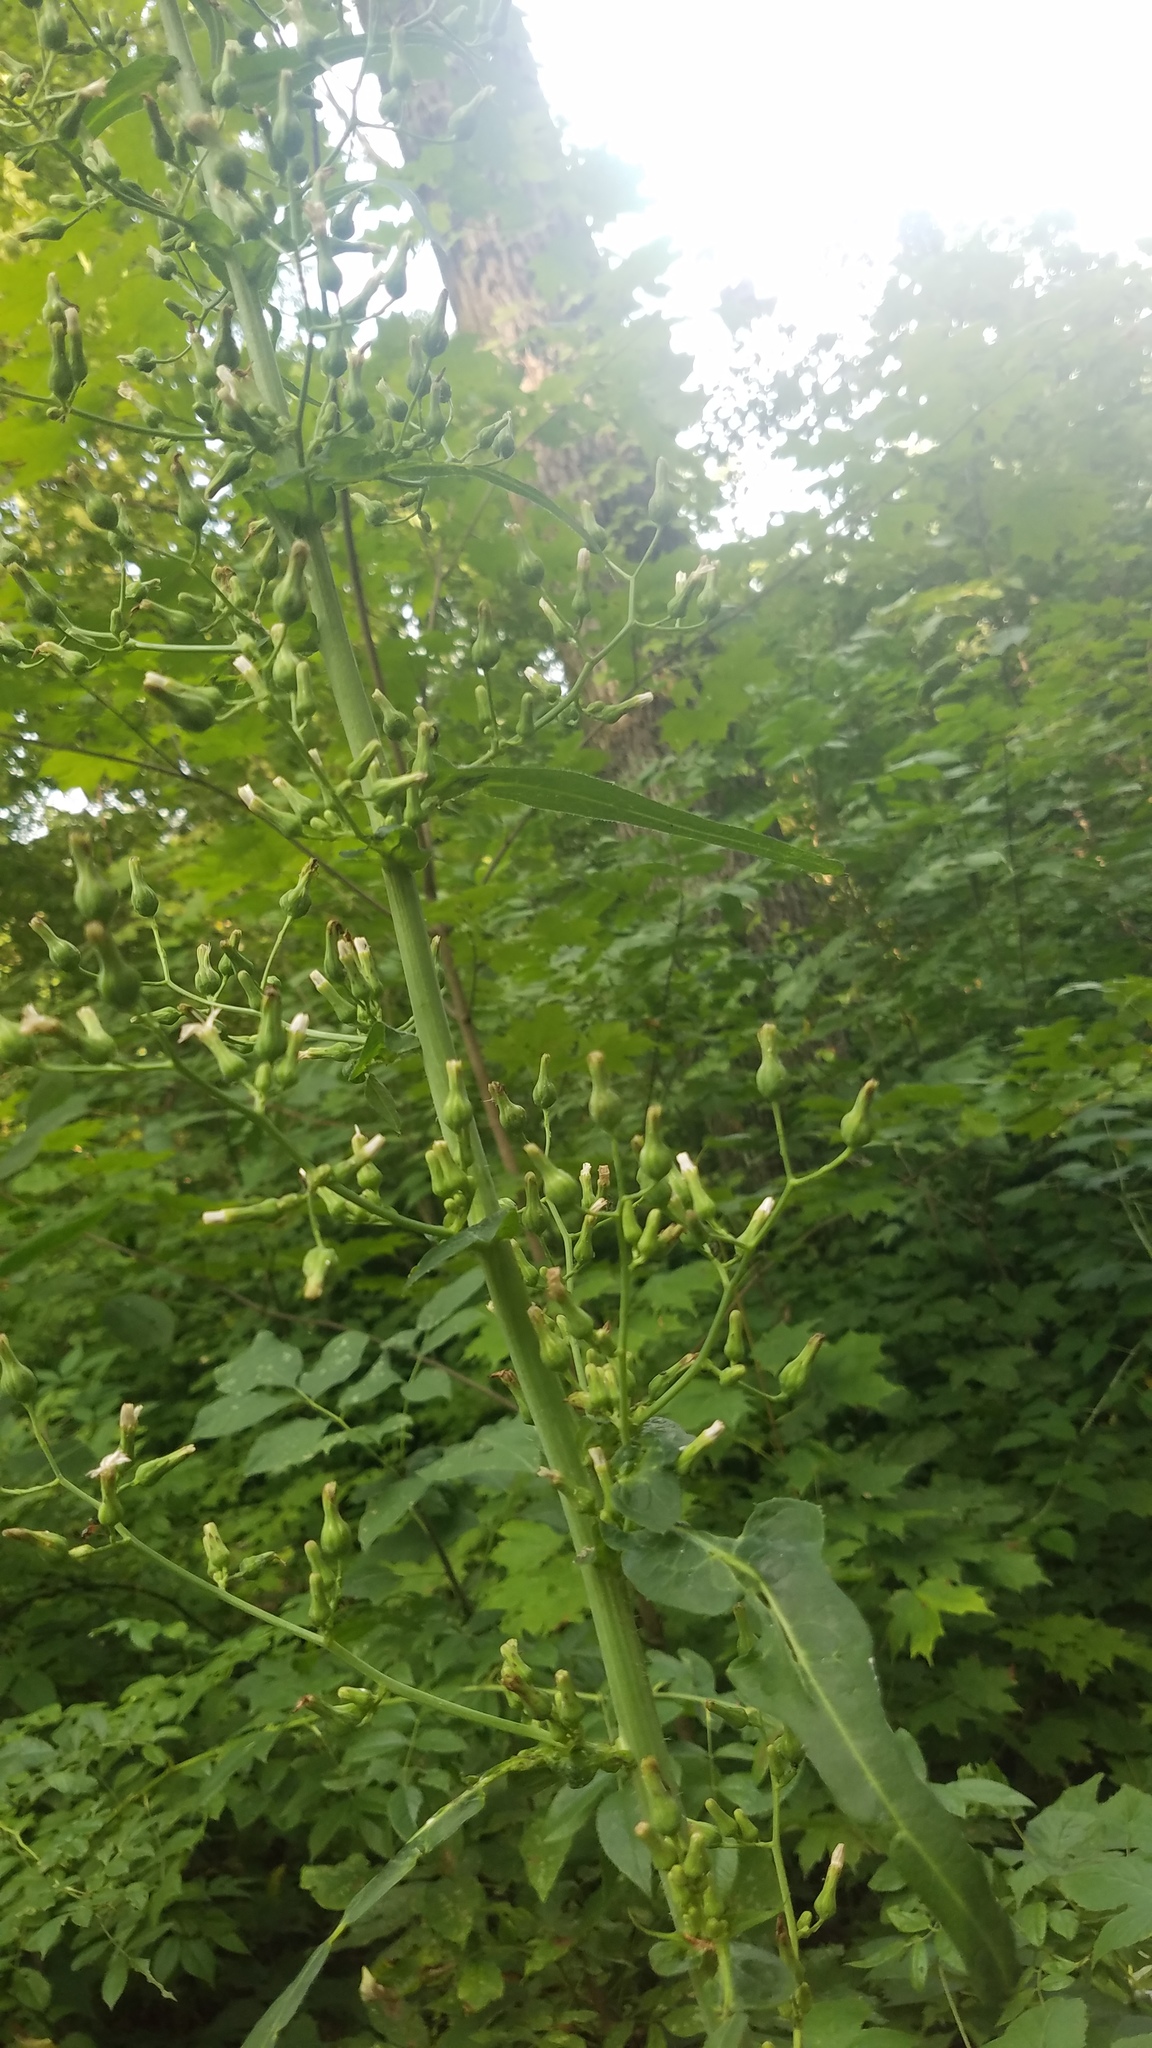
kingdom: Plantae
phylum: Tracheophyta
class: Magnoliopsida
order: Asterales
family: Asteraceae
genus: Lactuca
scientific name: Lactuca biennis
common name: Blue wood lettuce
